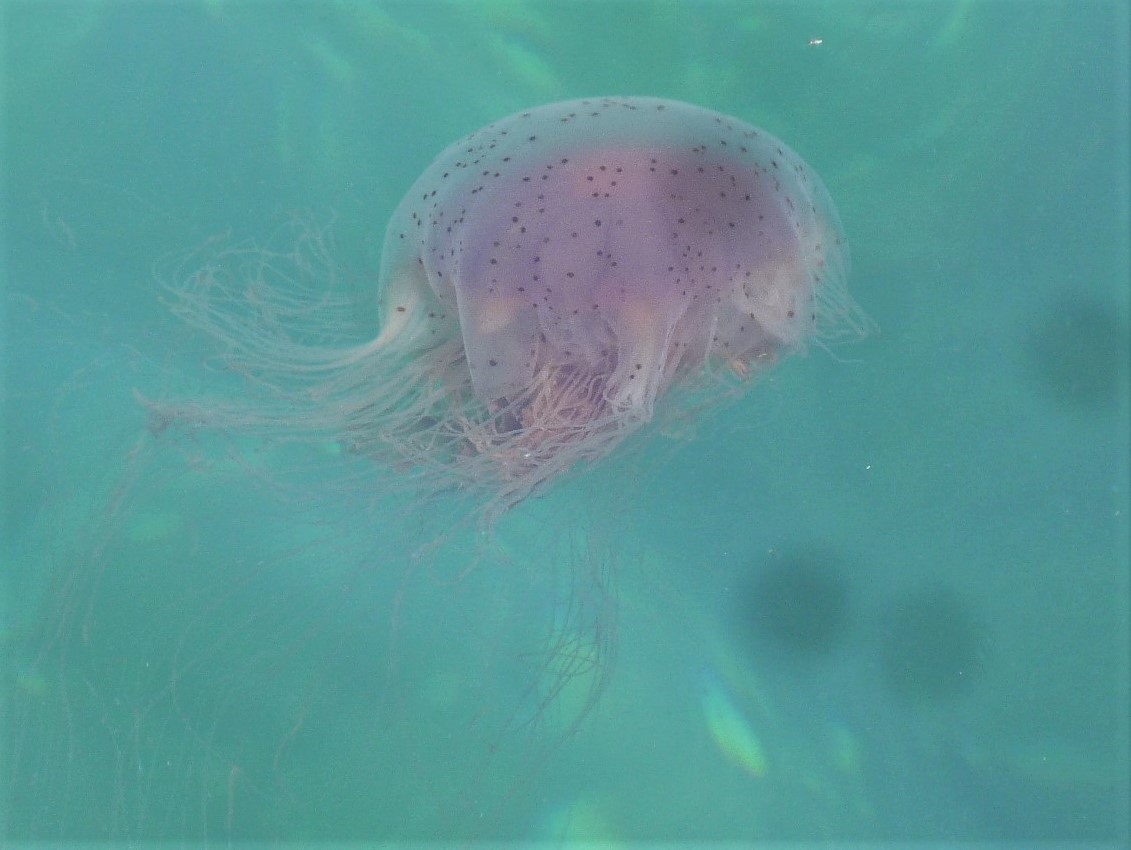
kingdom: Animalia
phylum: Cnidaria
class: Scyphozoa
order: Semaeostomeae
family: Cyaneidae
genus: Desmonema
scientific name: Desmonema gaudichaudi
